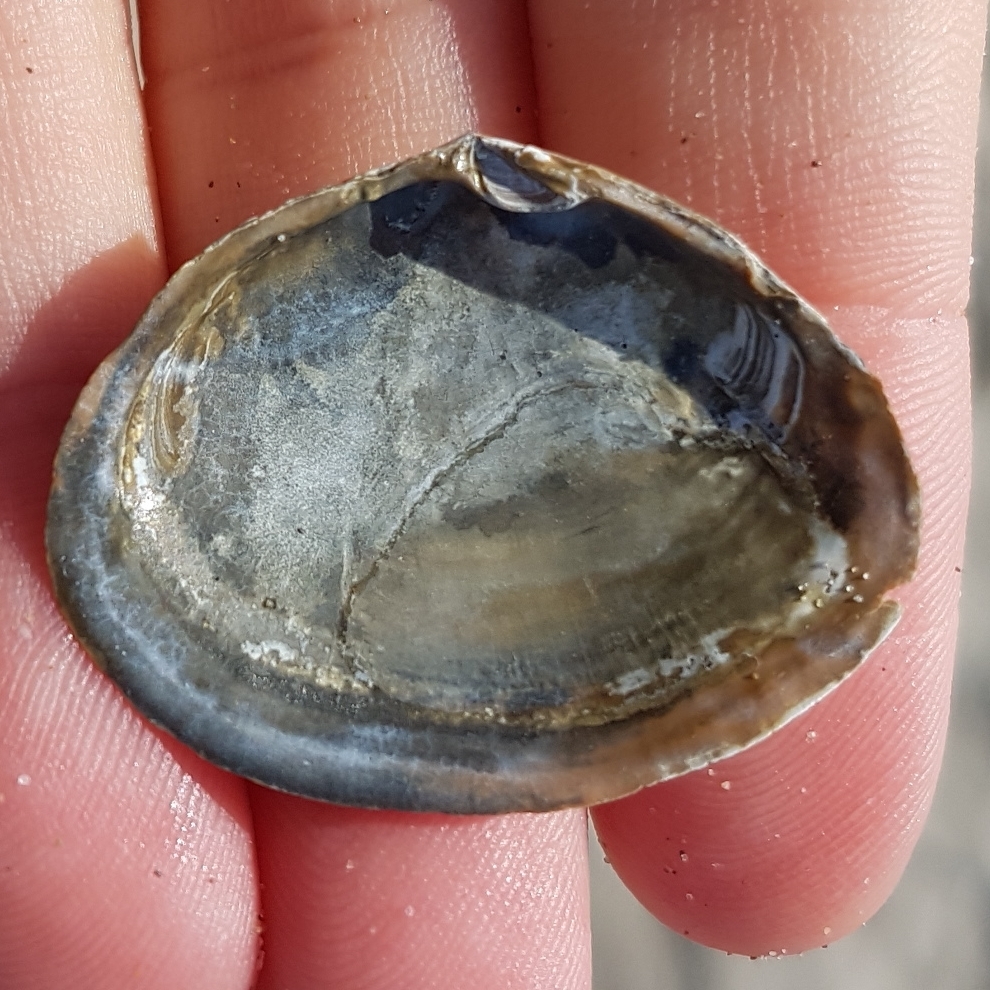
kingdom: Animalia
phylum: Mollusca
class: Bivalvia
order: Cardiida
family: Semelidae
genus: Scrobicularia
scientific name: Scrobicularia plana
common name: Peppery furrow shell
